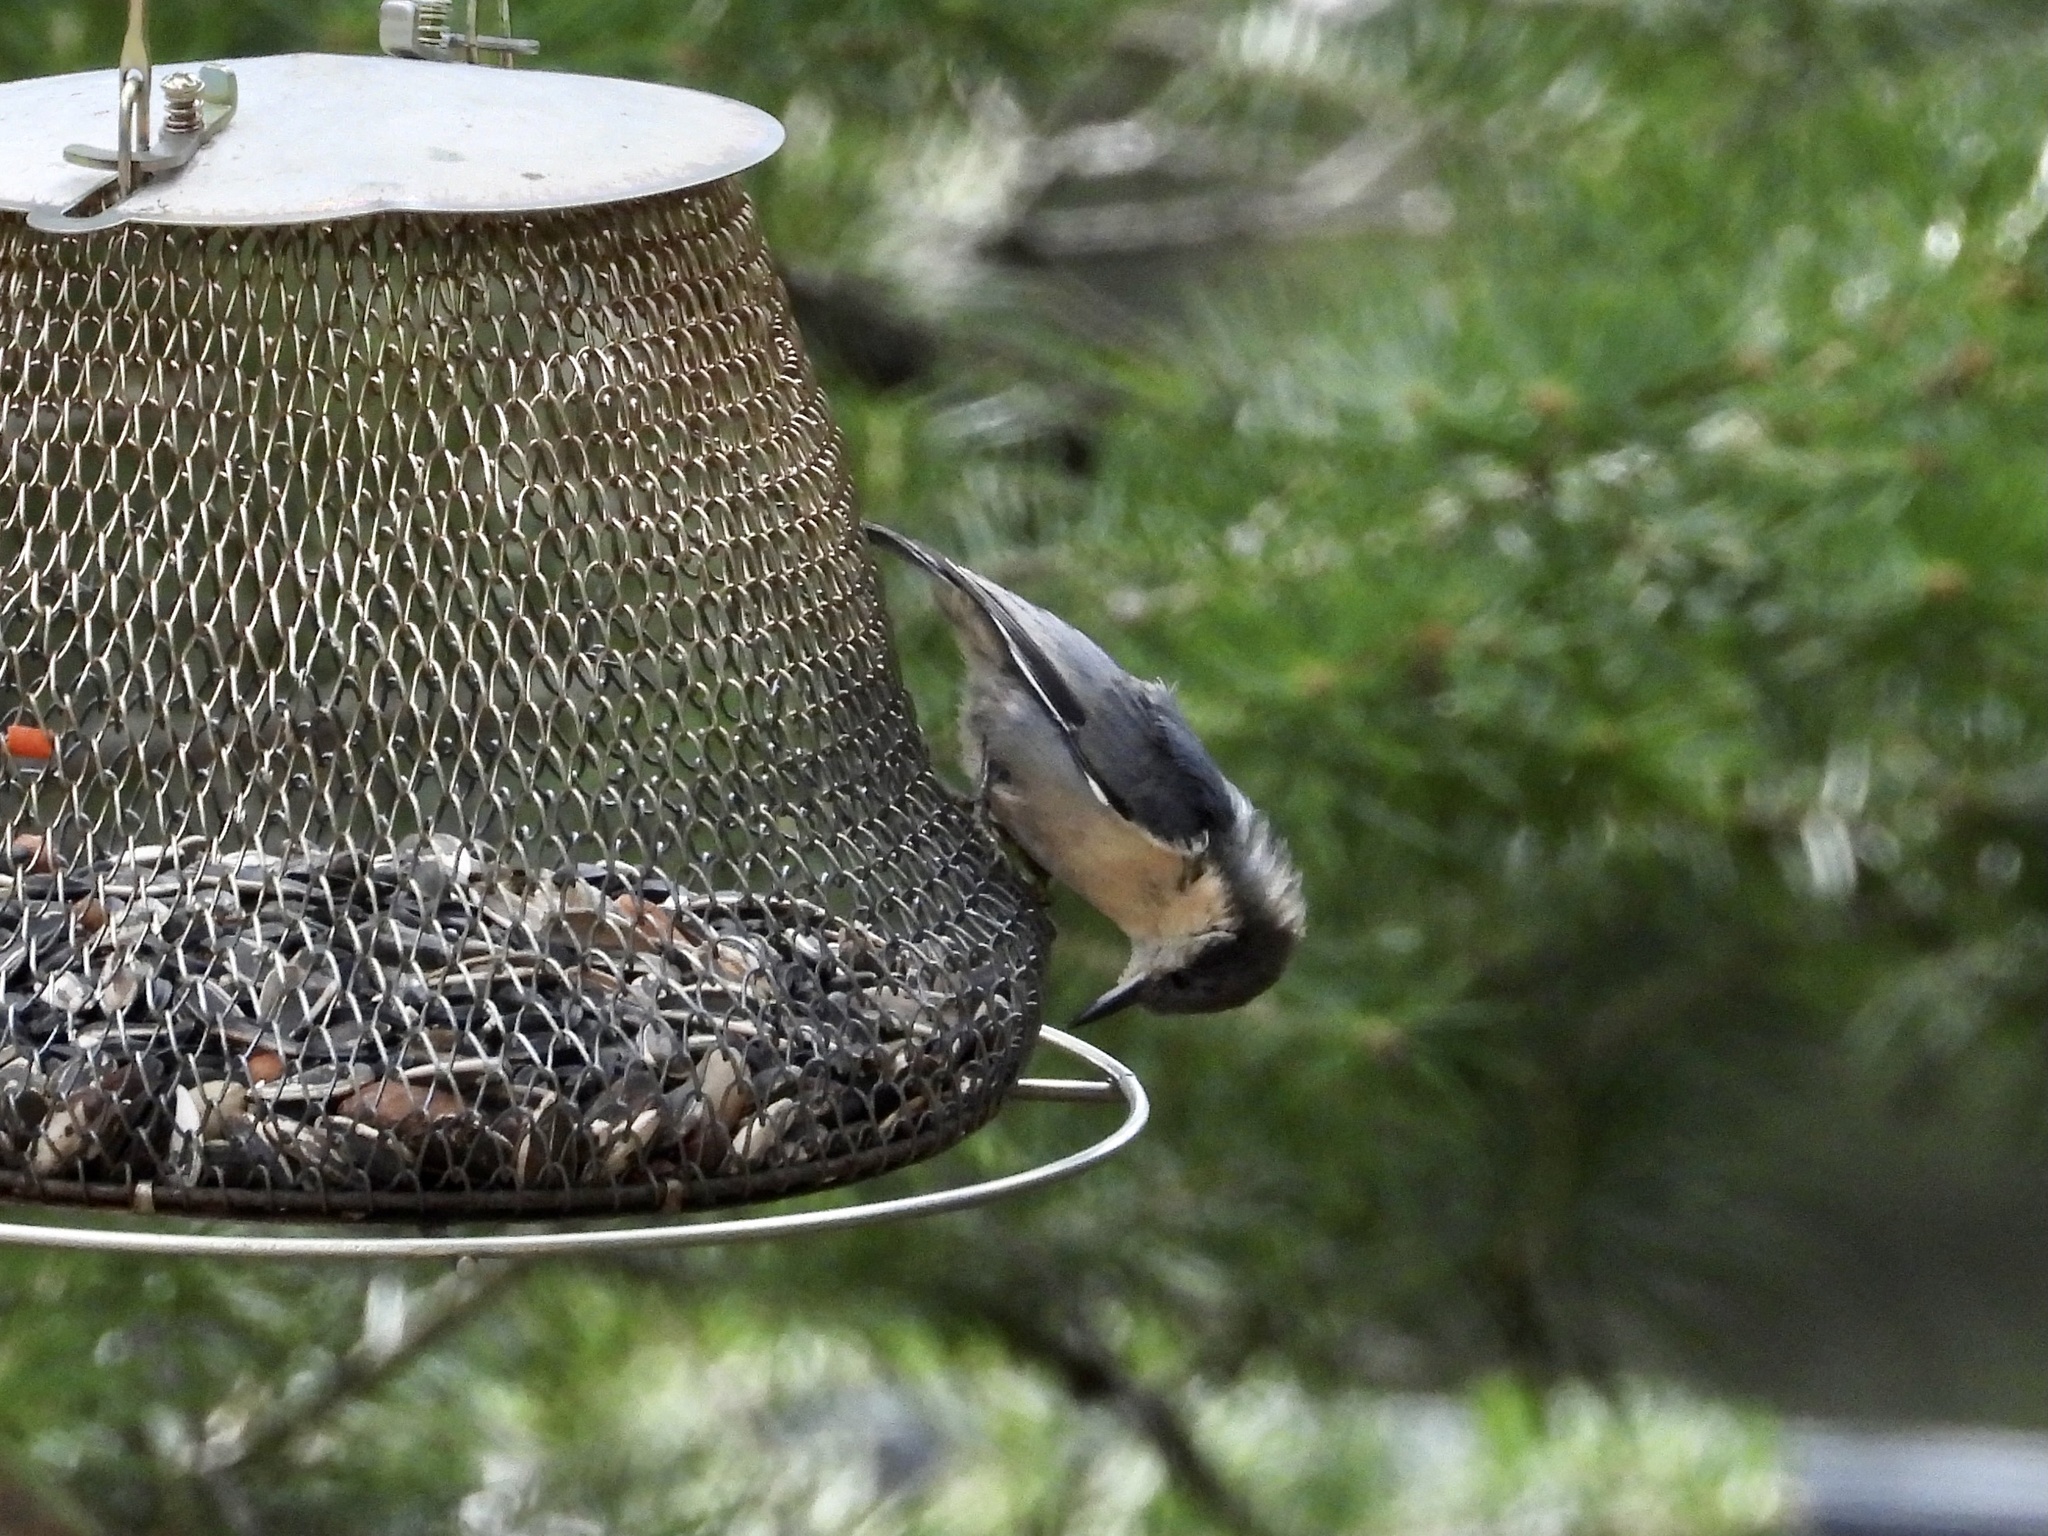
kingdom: Animalia
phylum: Chordata
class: Aves
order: Passeriformes
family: Sittidae
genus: Sitta
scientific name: Sitta pygmaea
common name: Pygmy nuthatch
